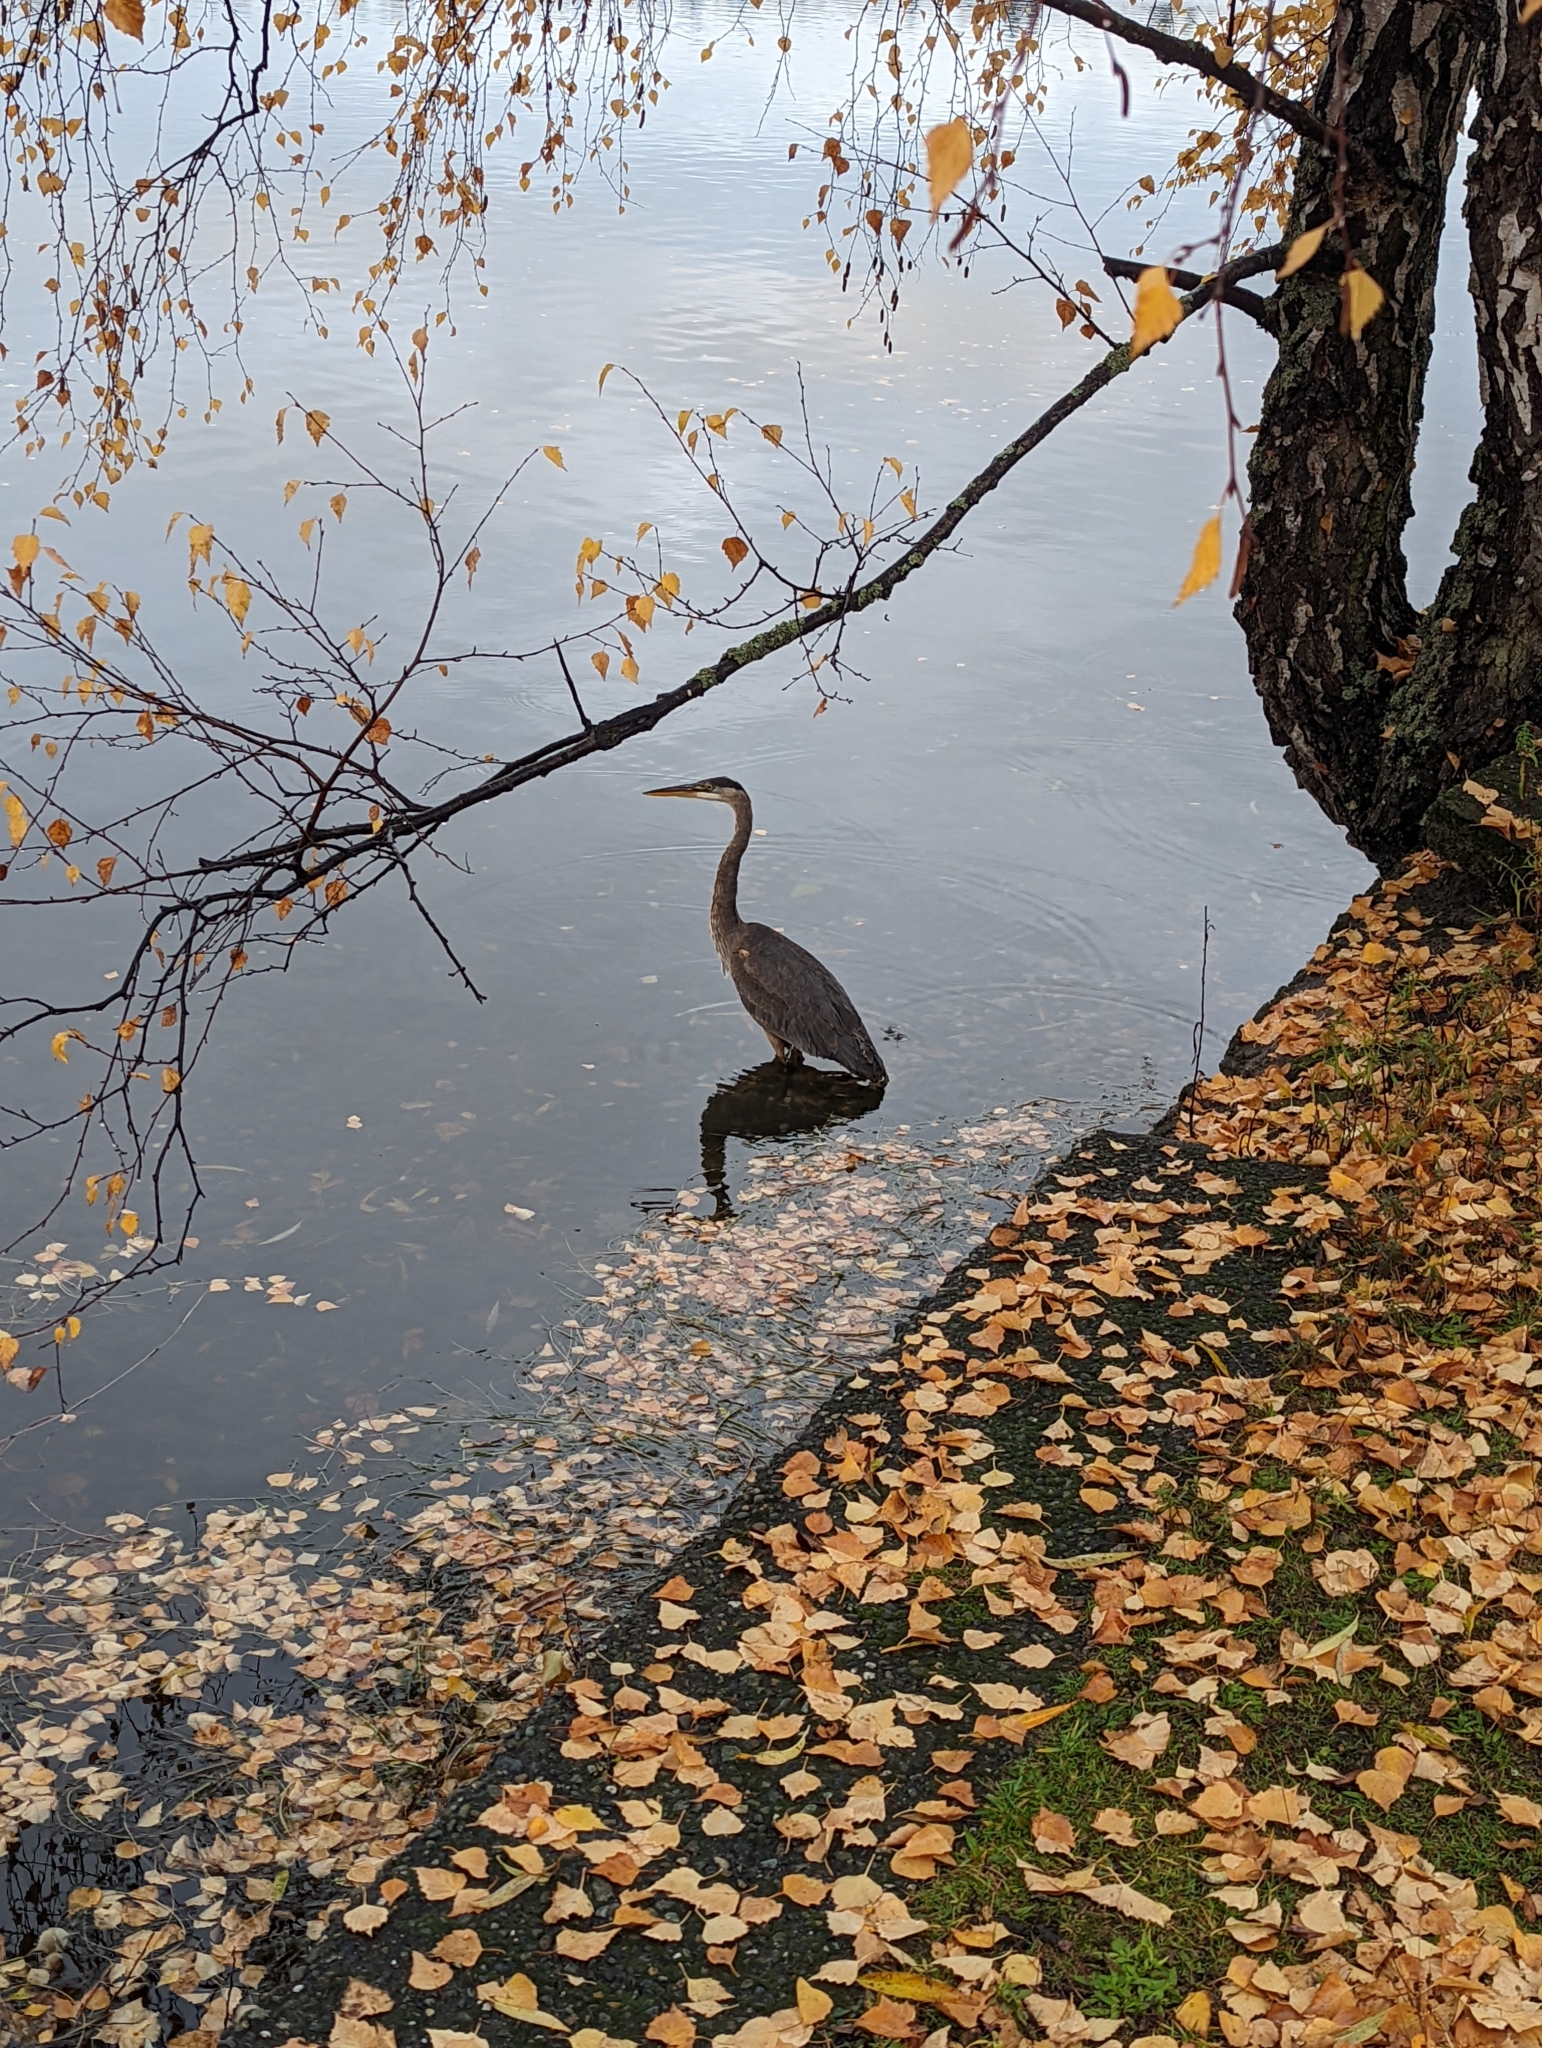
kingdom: Animalia
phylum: Chordata
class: Aves
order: Pelecaniformes
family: Ardeidae
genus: Ardea
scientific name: Ardea herodias
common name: Great blue heron
